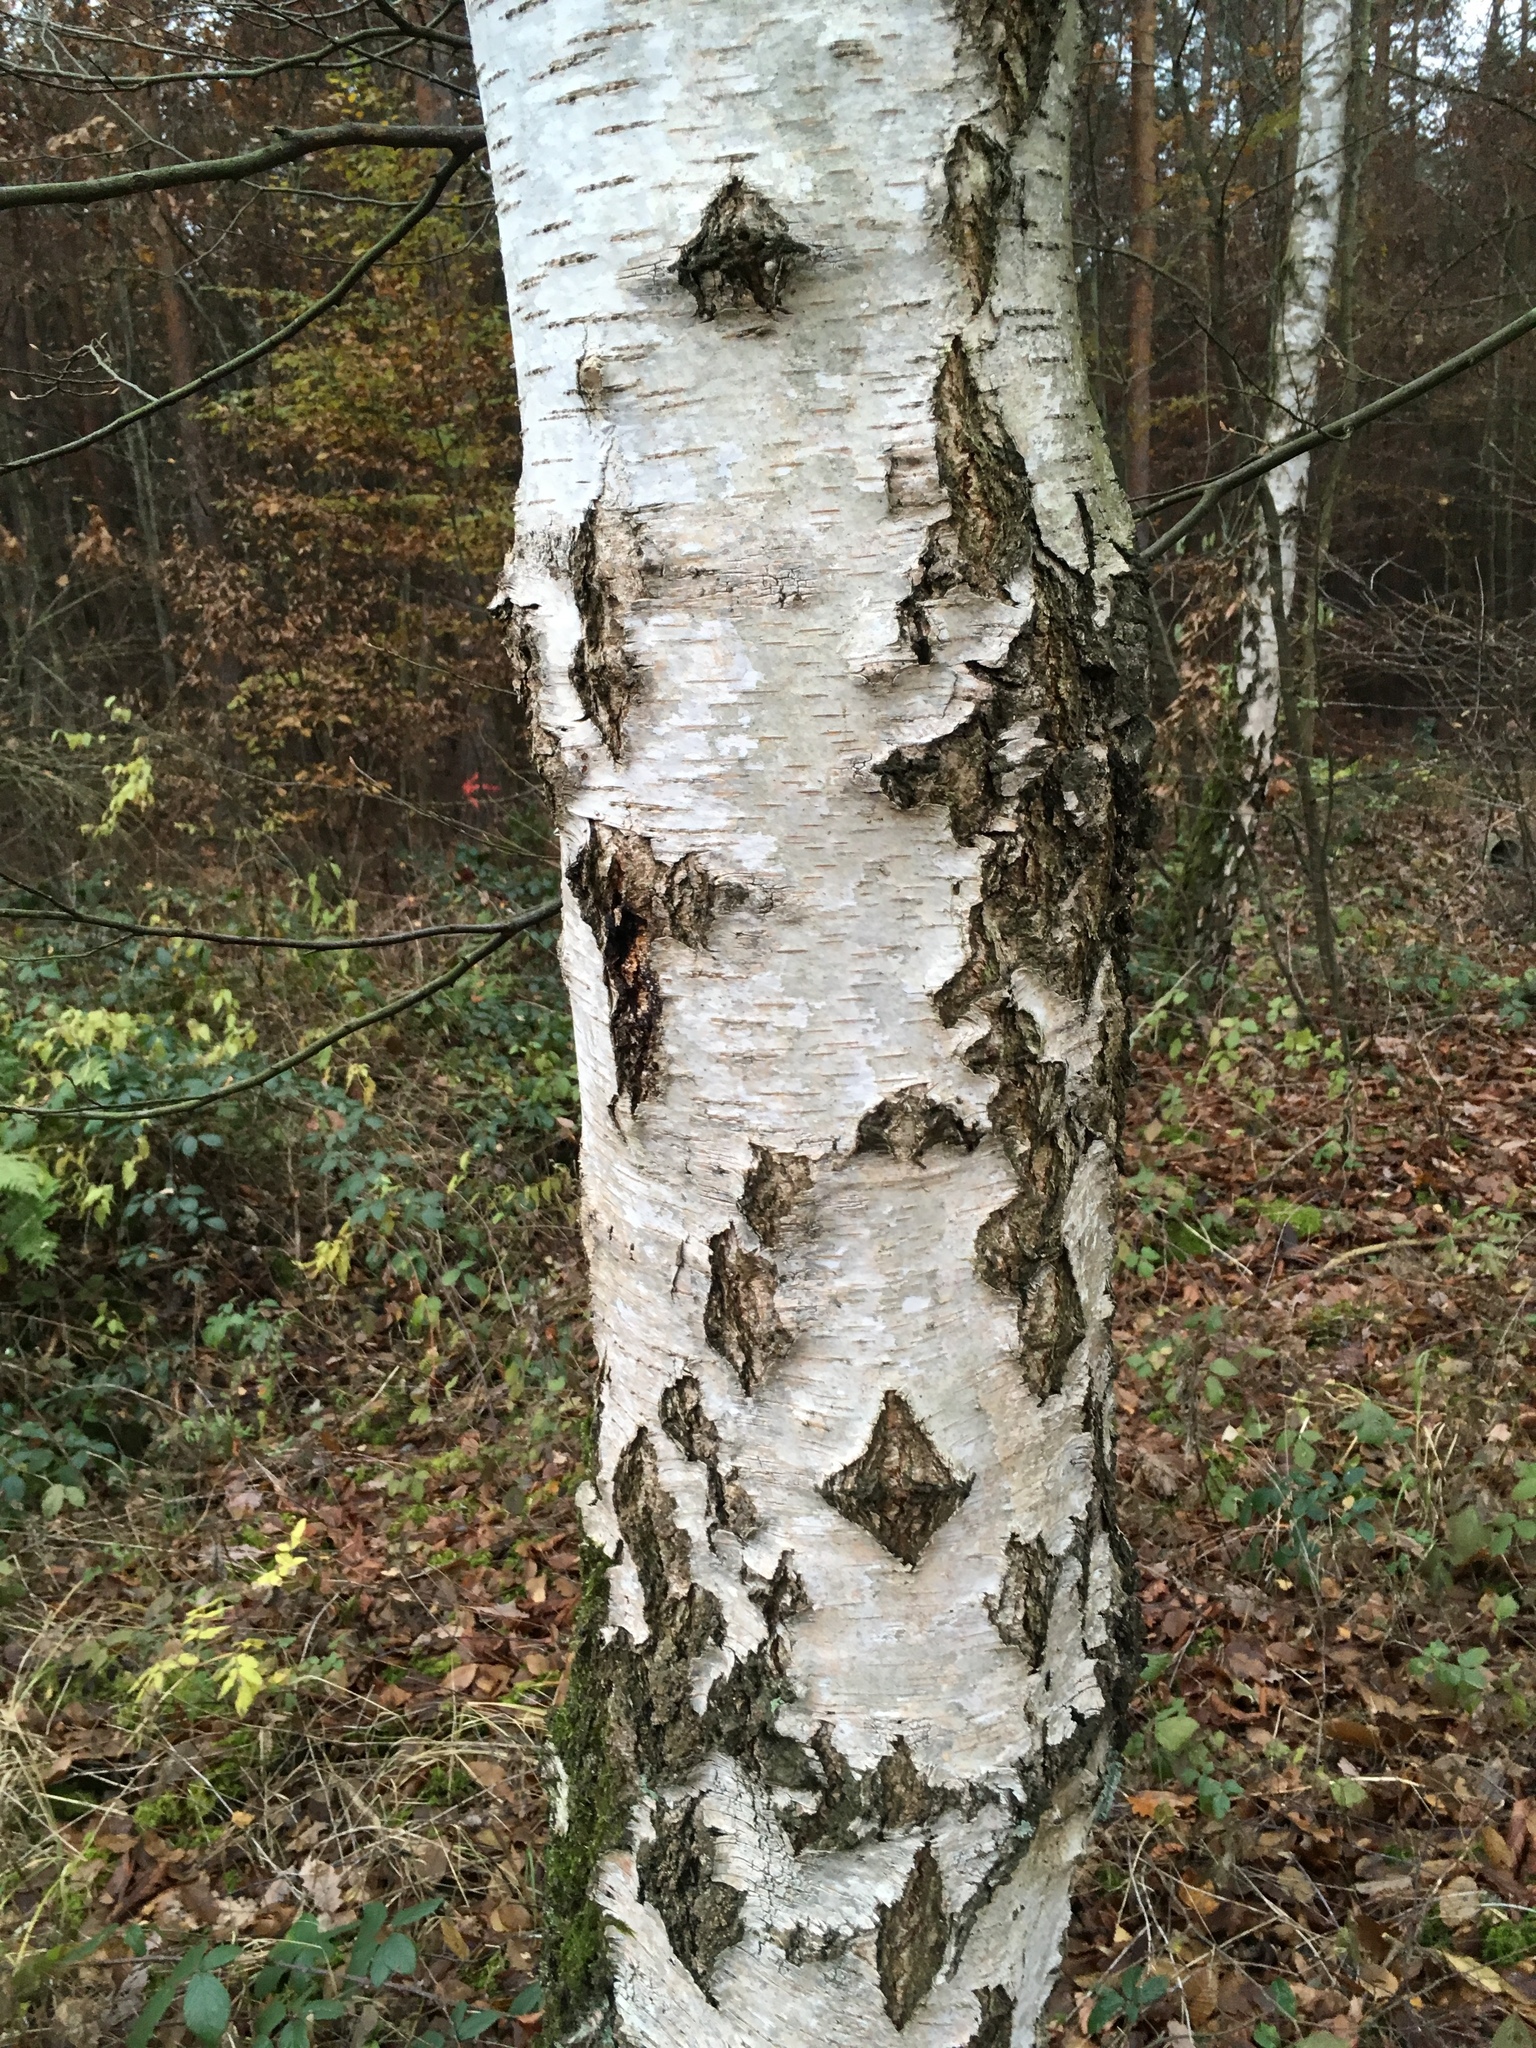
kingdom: Plantae
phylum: Tracheophyta
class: Magnoliopsida
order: Fagales
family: Betulaceae
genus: Betula
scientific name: Betula pendula
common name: Silver birch
